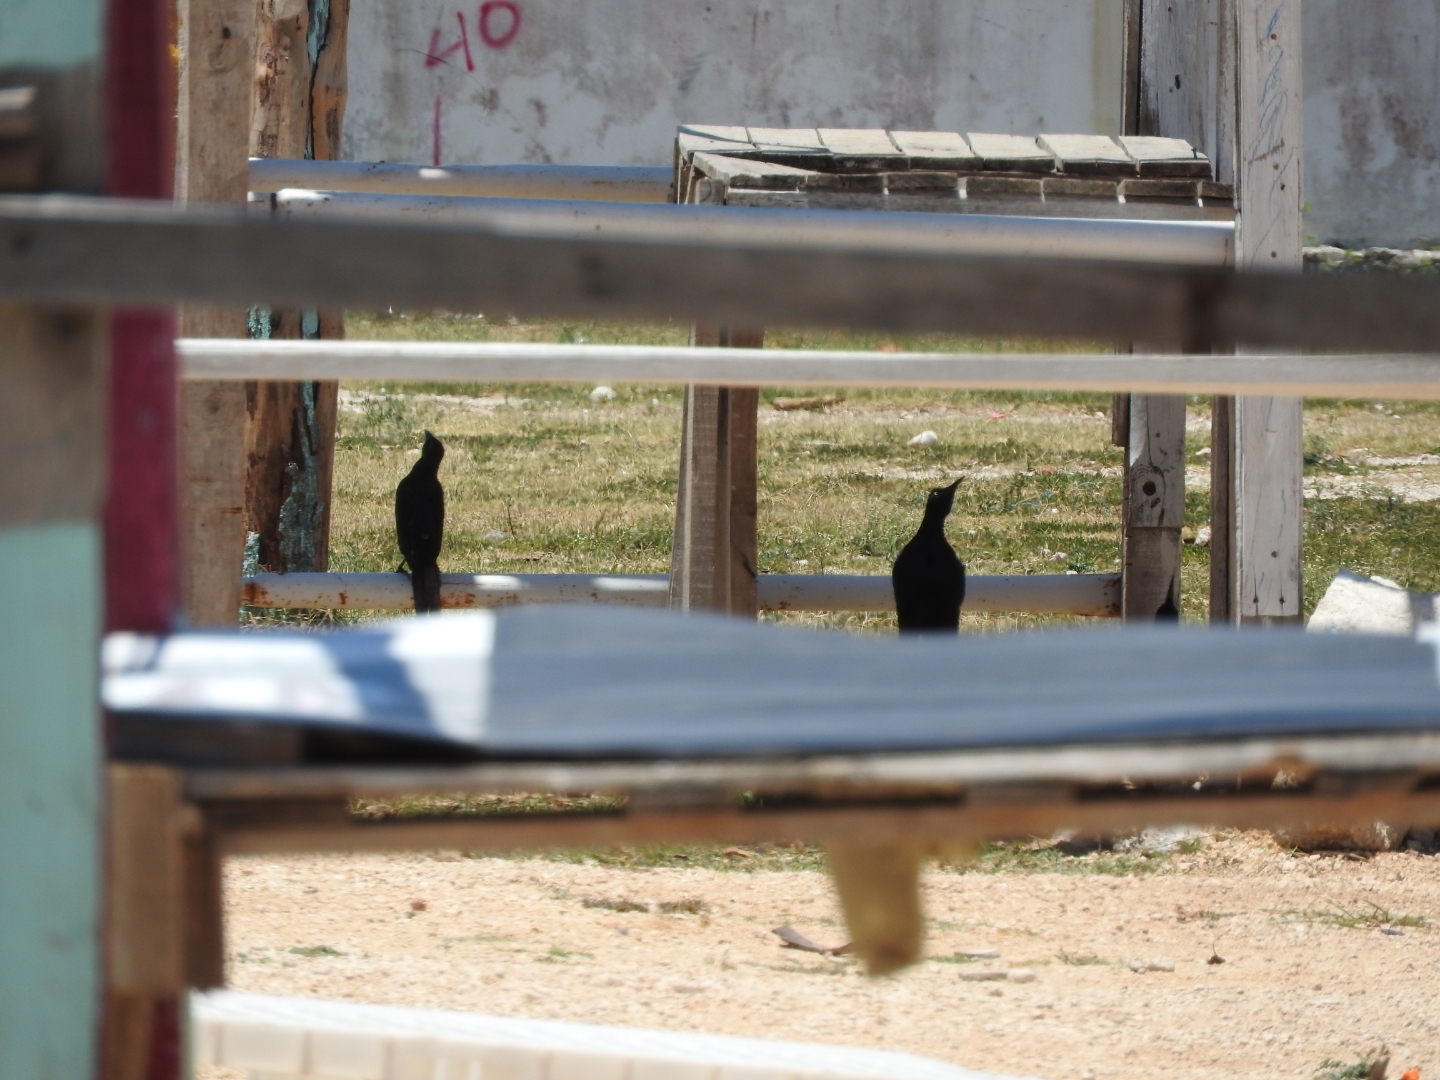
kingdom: Animalia
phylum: Chordata
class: Aves
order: Passeriformes
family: Icteridae
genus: Quiscalus
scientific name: Quiscalus mexicanus
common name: Great-tailed grackle
